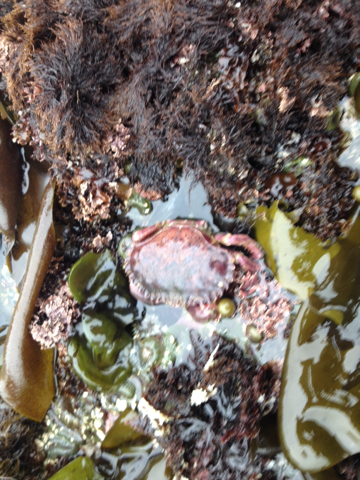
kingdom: Animalia
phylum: Arthropoda
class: Malacostraca
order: Decapoda
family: Cancridae
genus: Romaleon
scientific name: Romaleon antennarium
